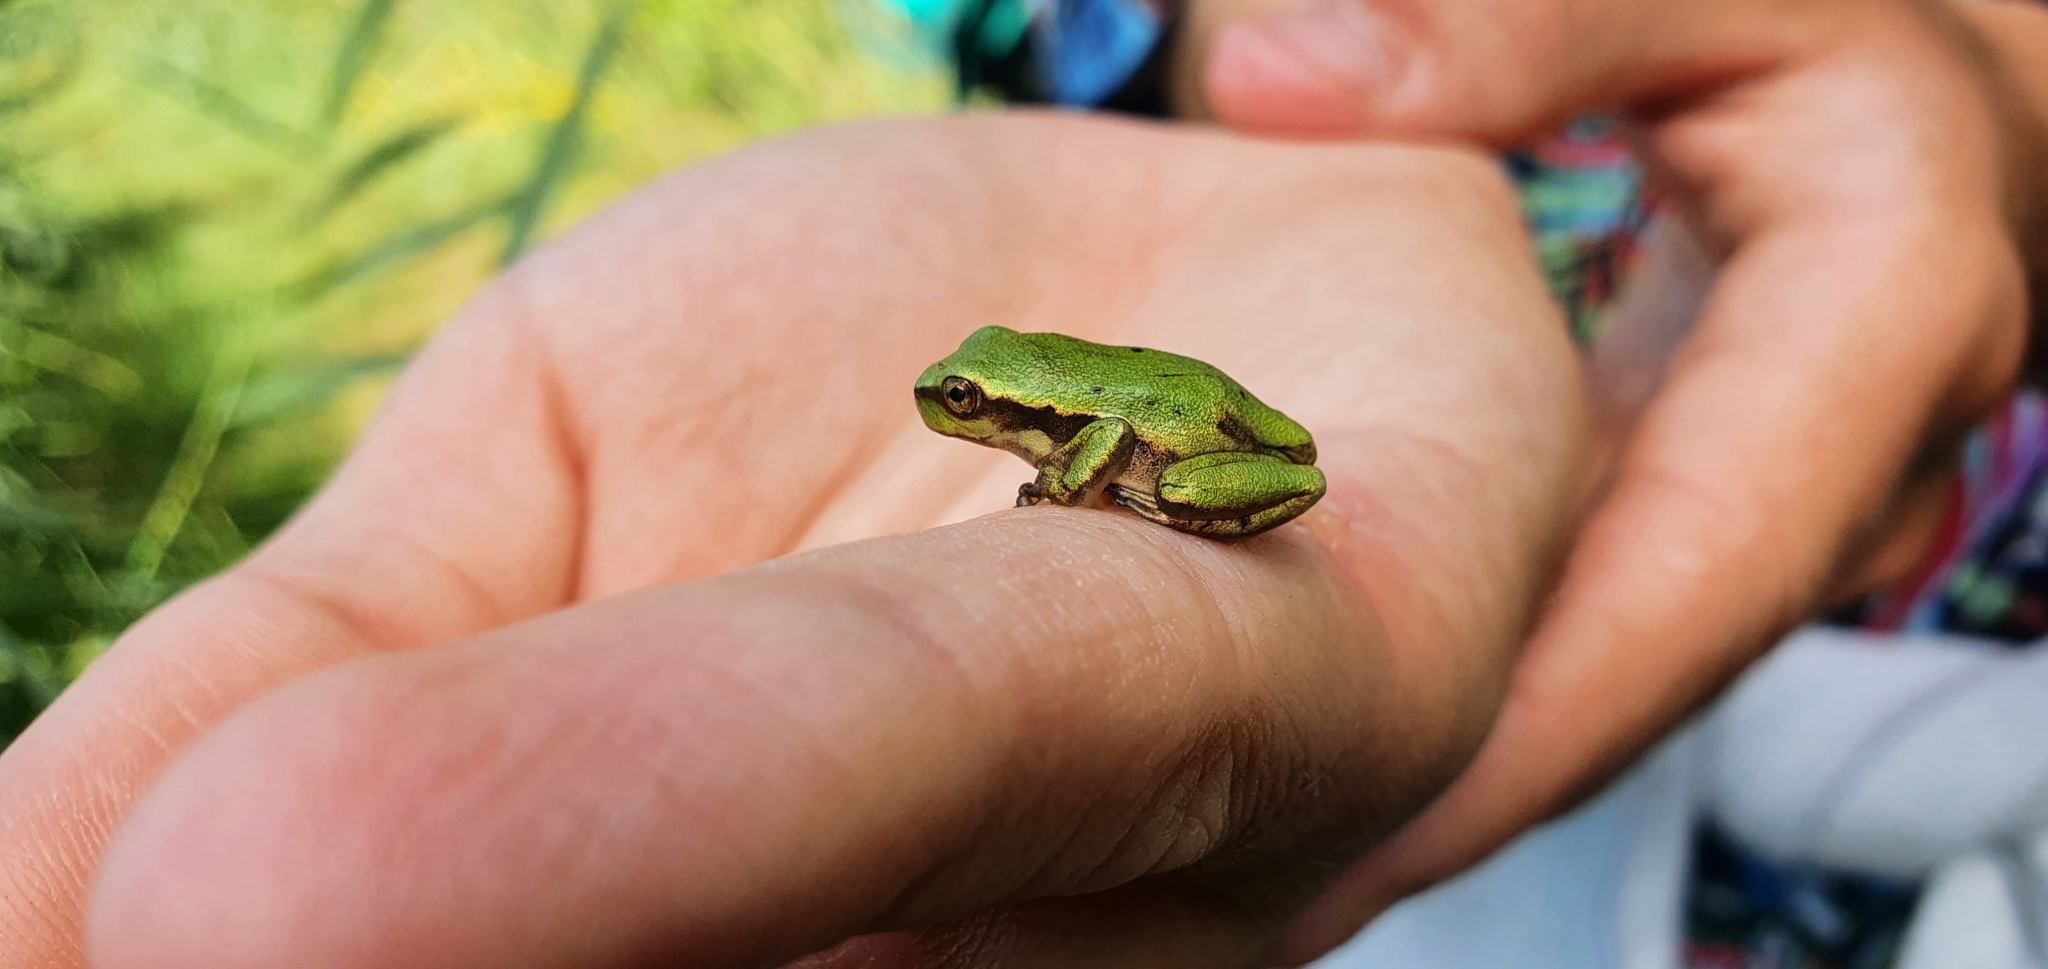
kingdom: Animalia
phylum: Chordata
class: Amphibia
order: Anura
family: Hylidae
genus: Hyla
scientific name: Hyla arborea
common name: Common tree frog
